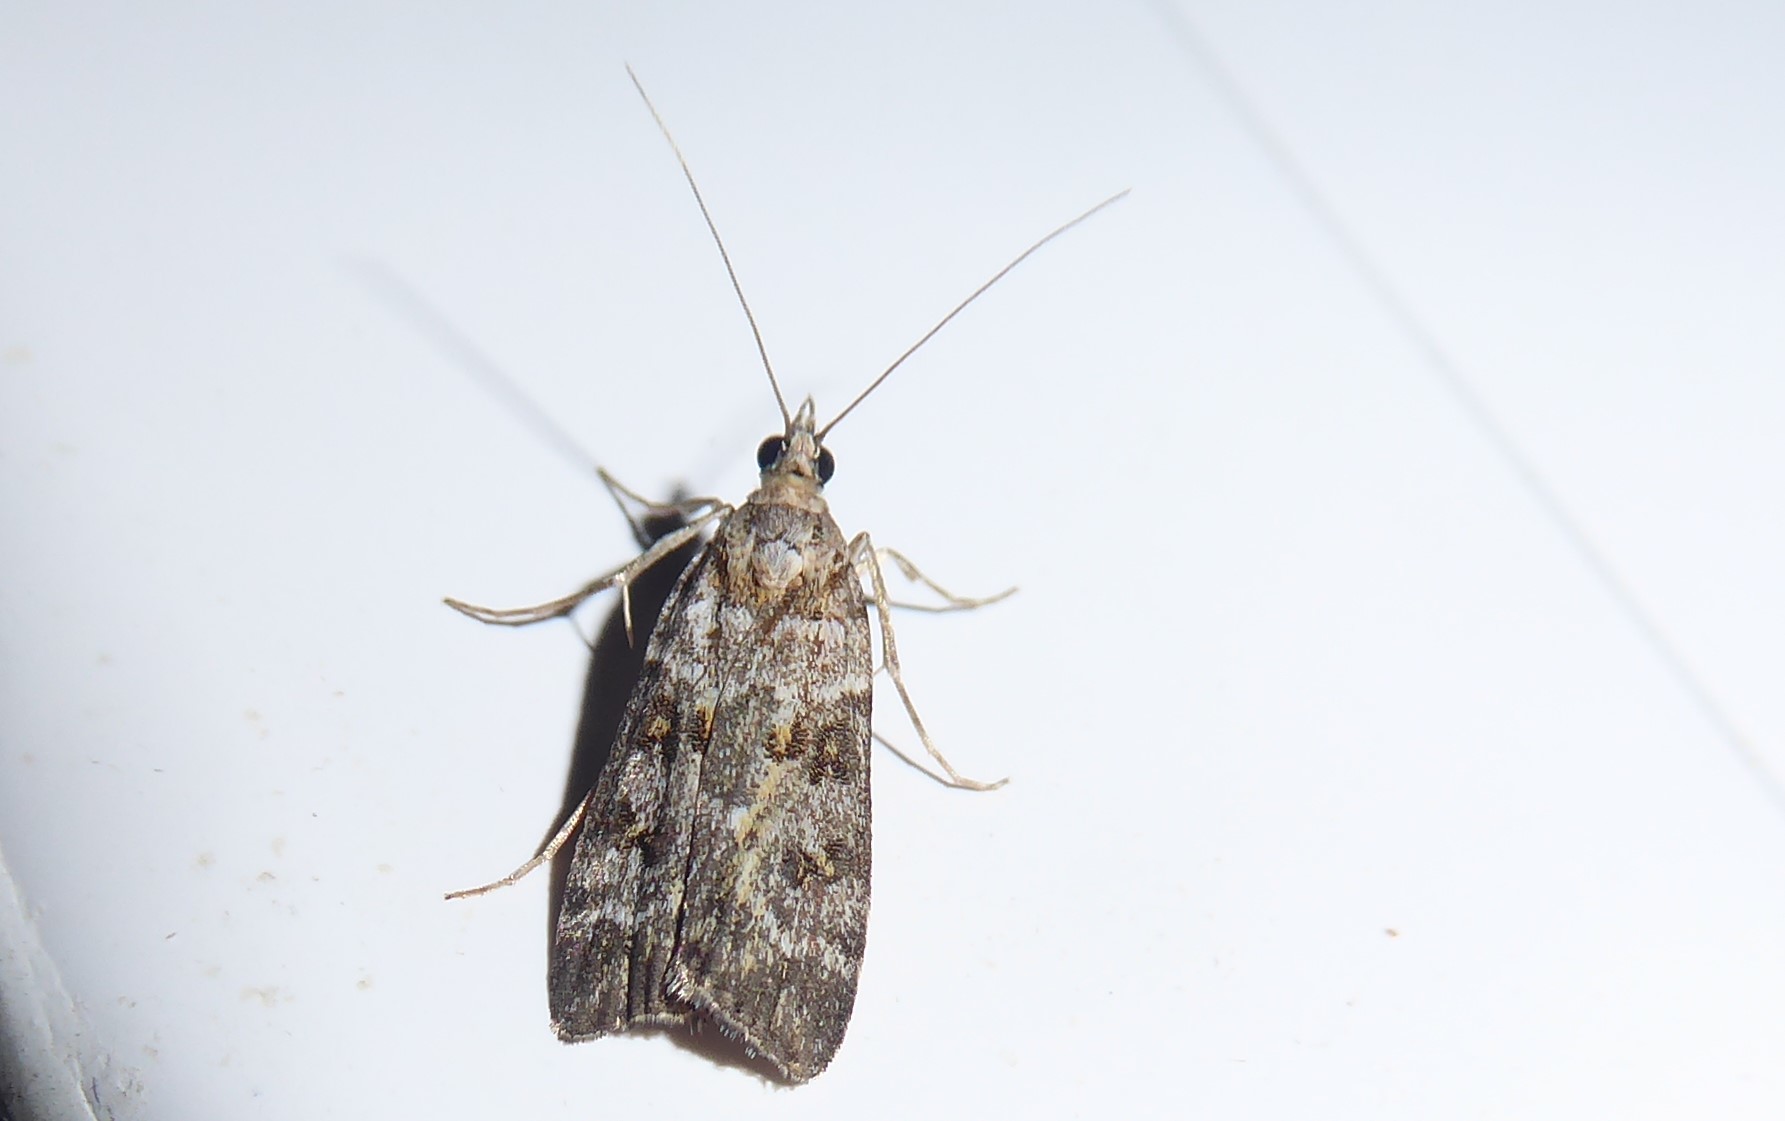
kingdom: Animalia
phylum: Arthropoda
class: Insecta
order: Lepidoptera
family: Crambidae
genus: Scoparia
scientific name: Scoparia tetracycla
